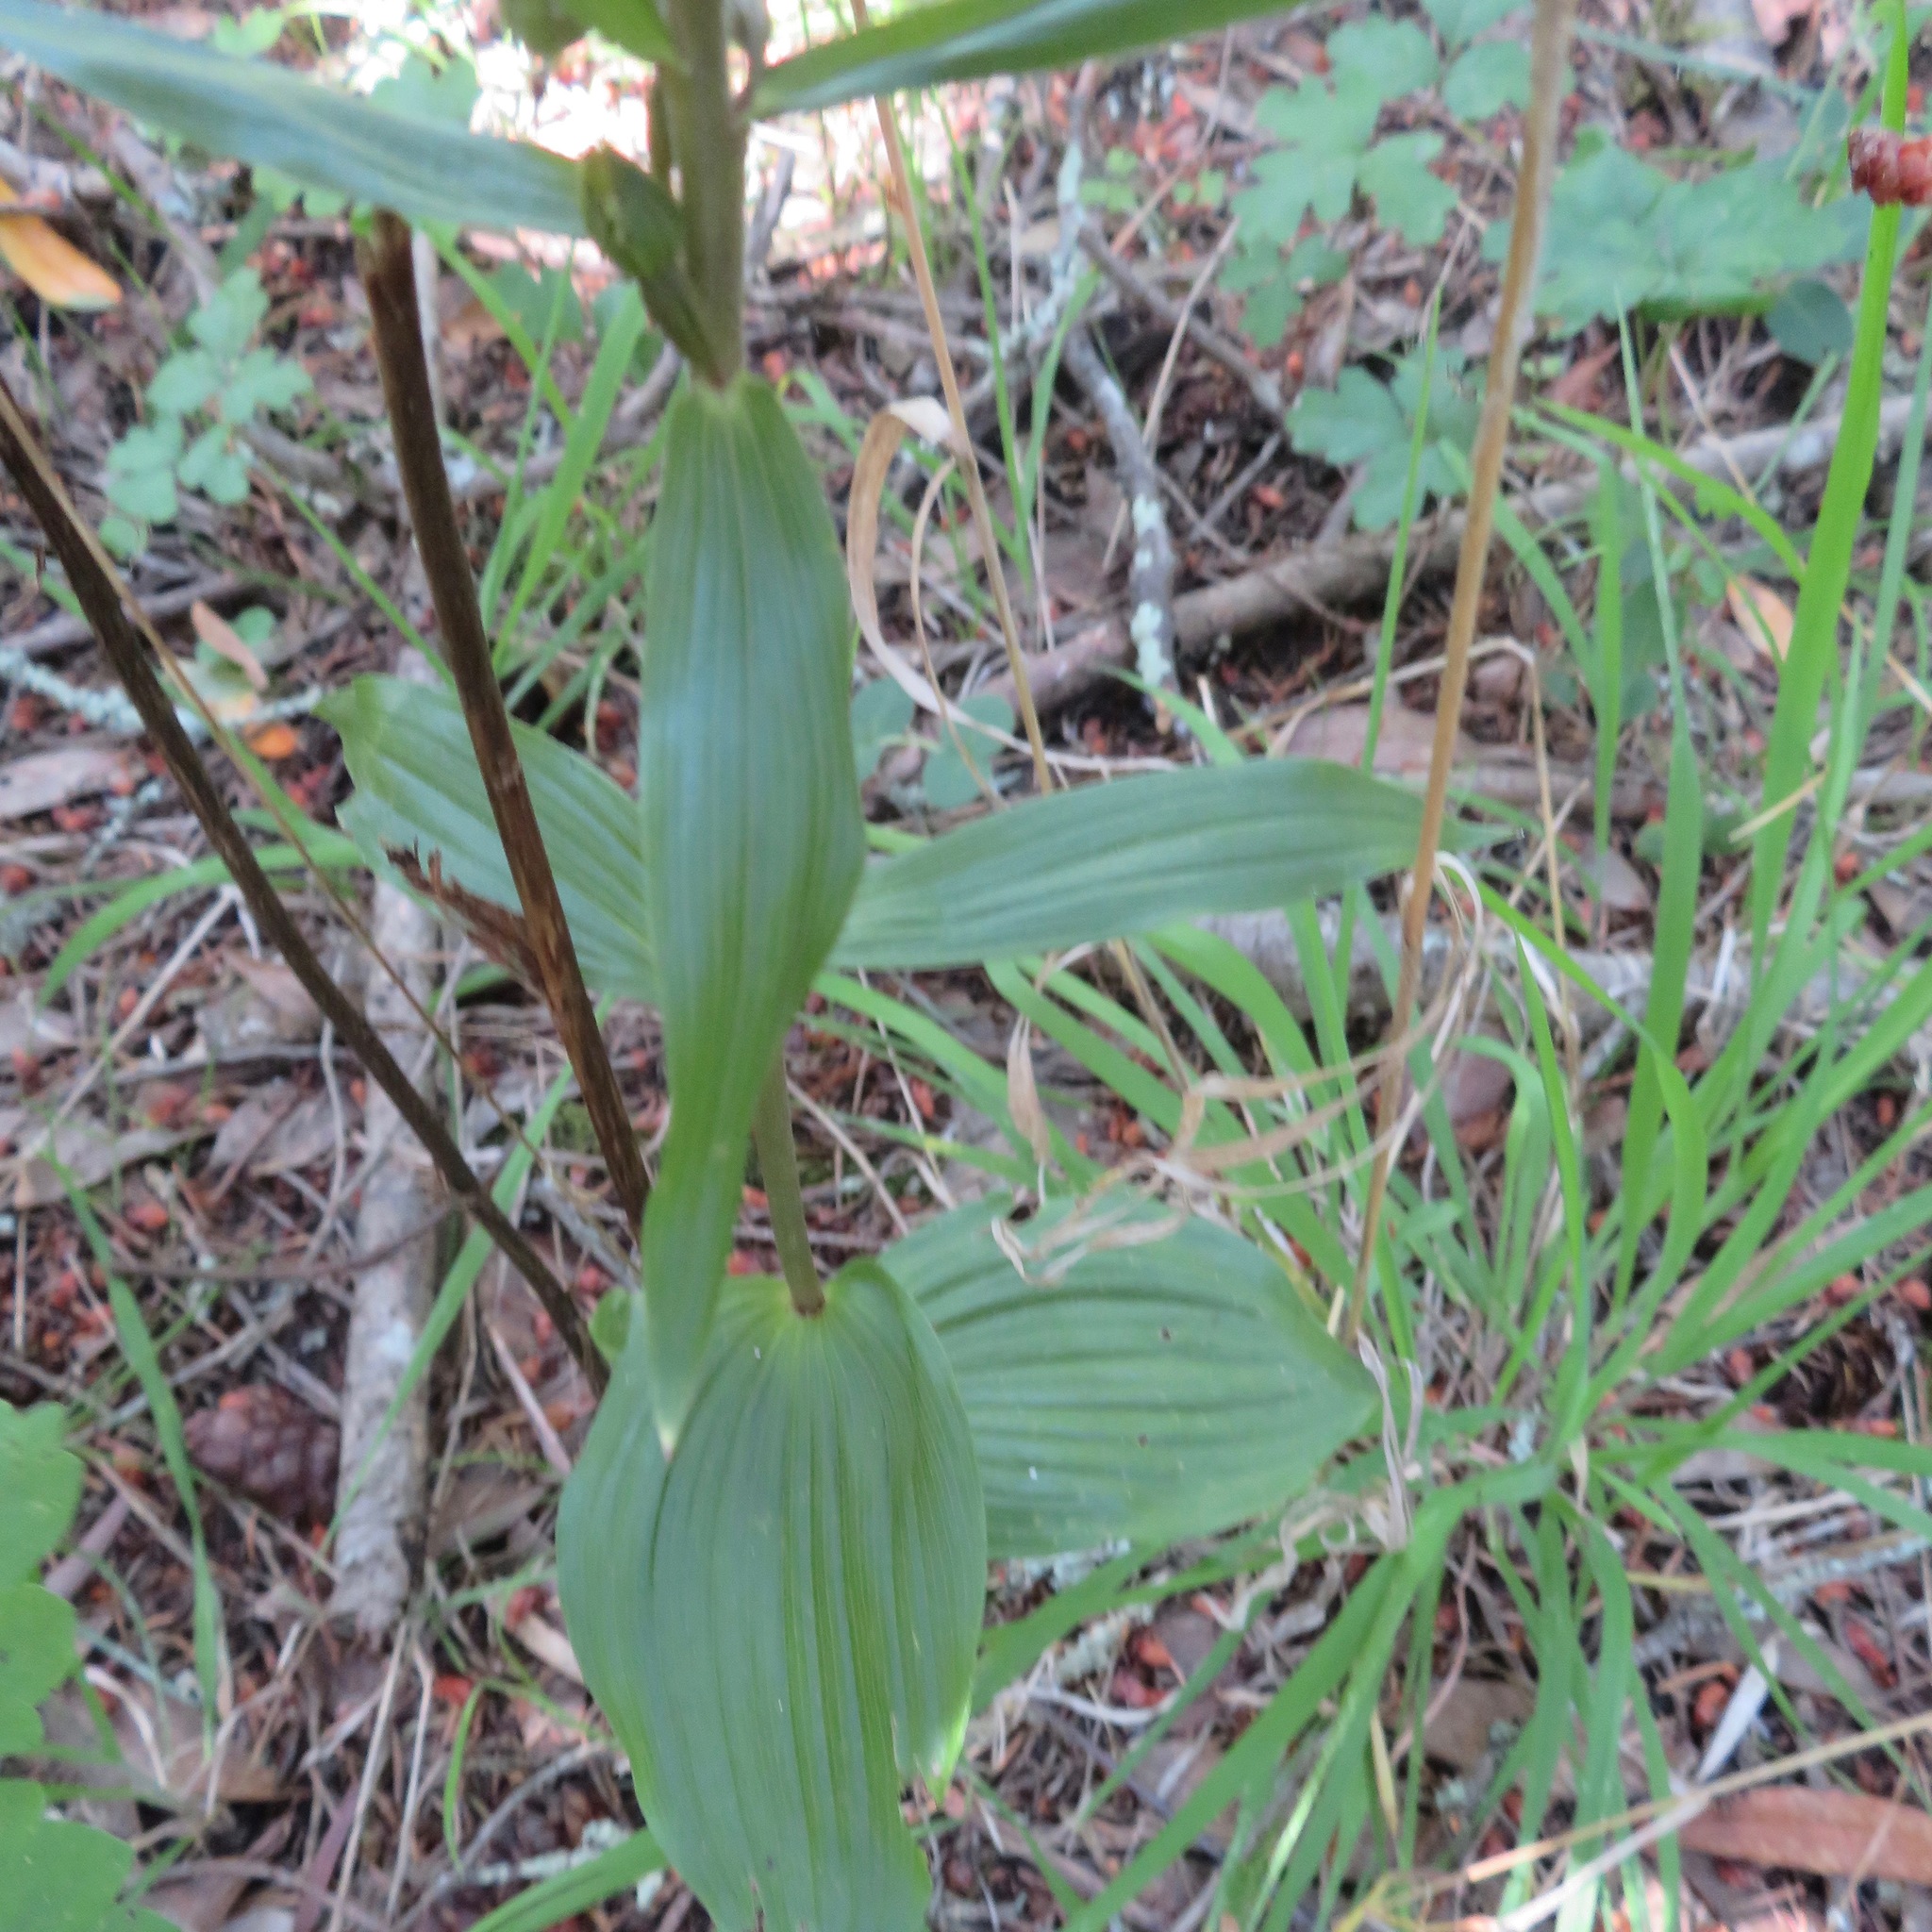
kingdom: Plantae
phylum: Tracheophyta
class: Liliopsida
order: Asparagales
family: Orchidaceae
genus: Epipactis
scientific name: Epipactis helleborine
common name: Broad-leaved helleborine
